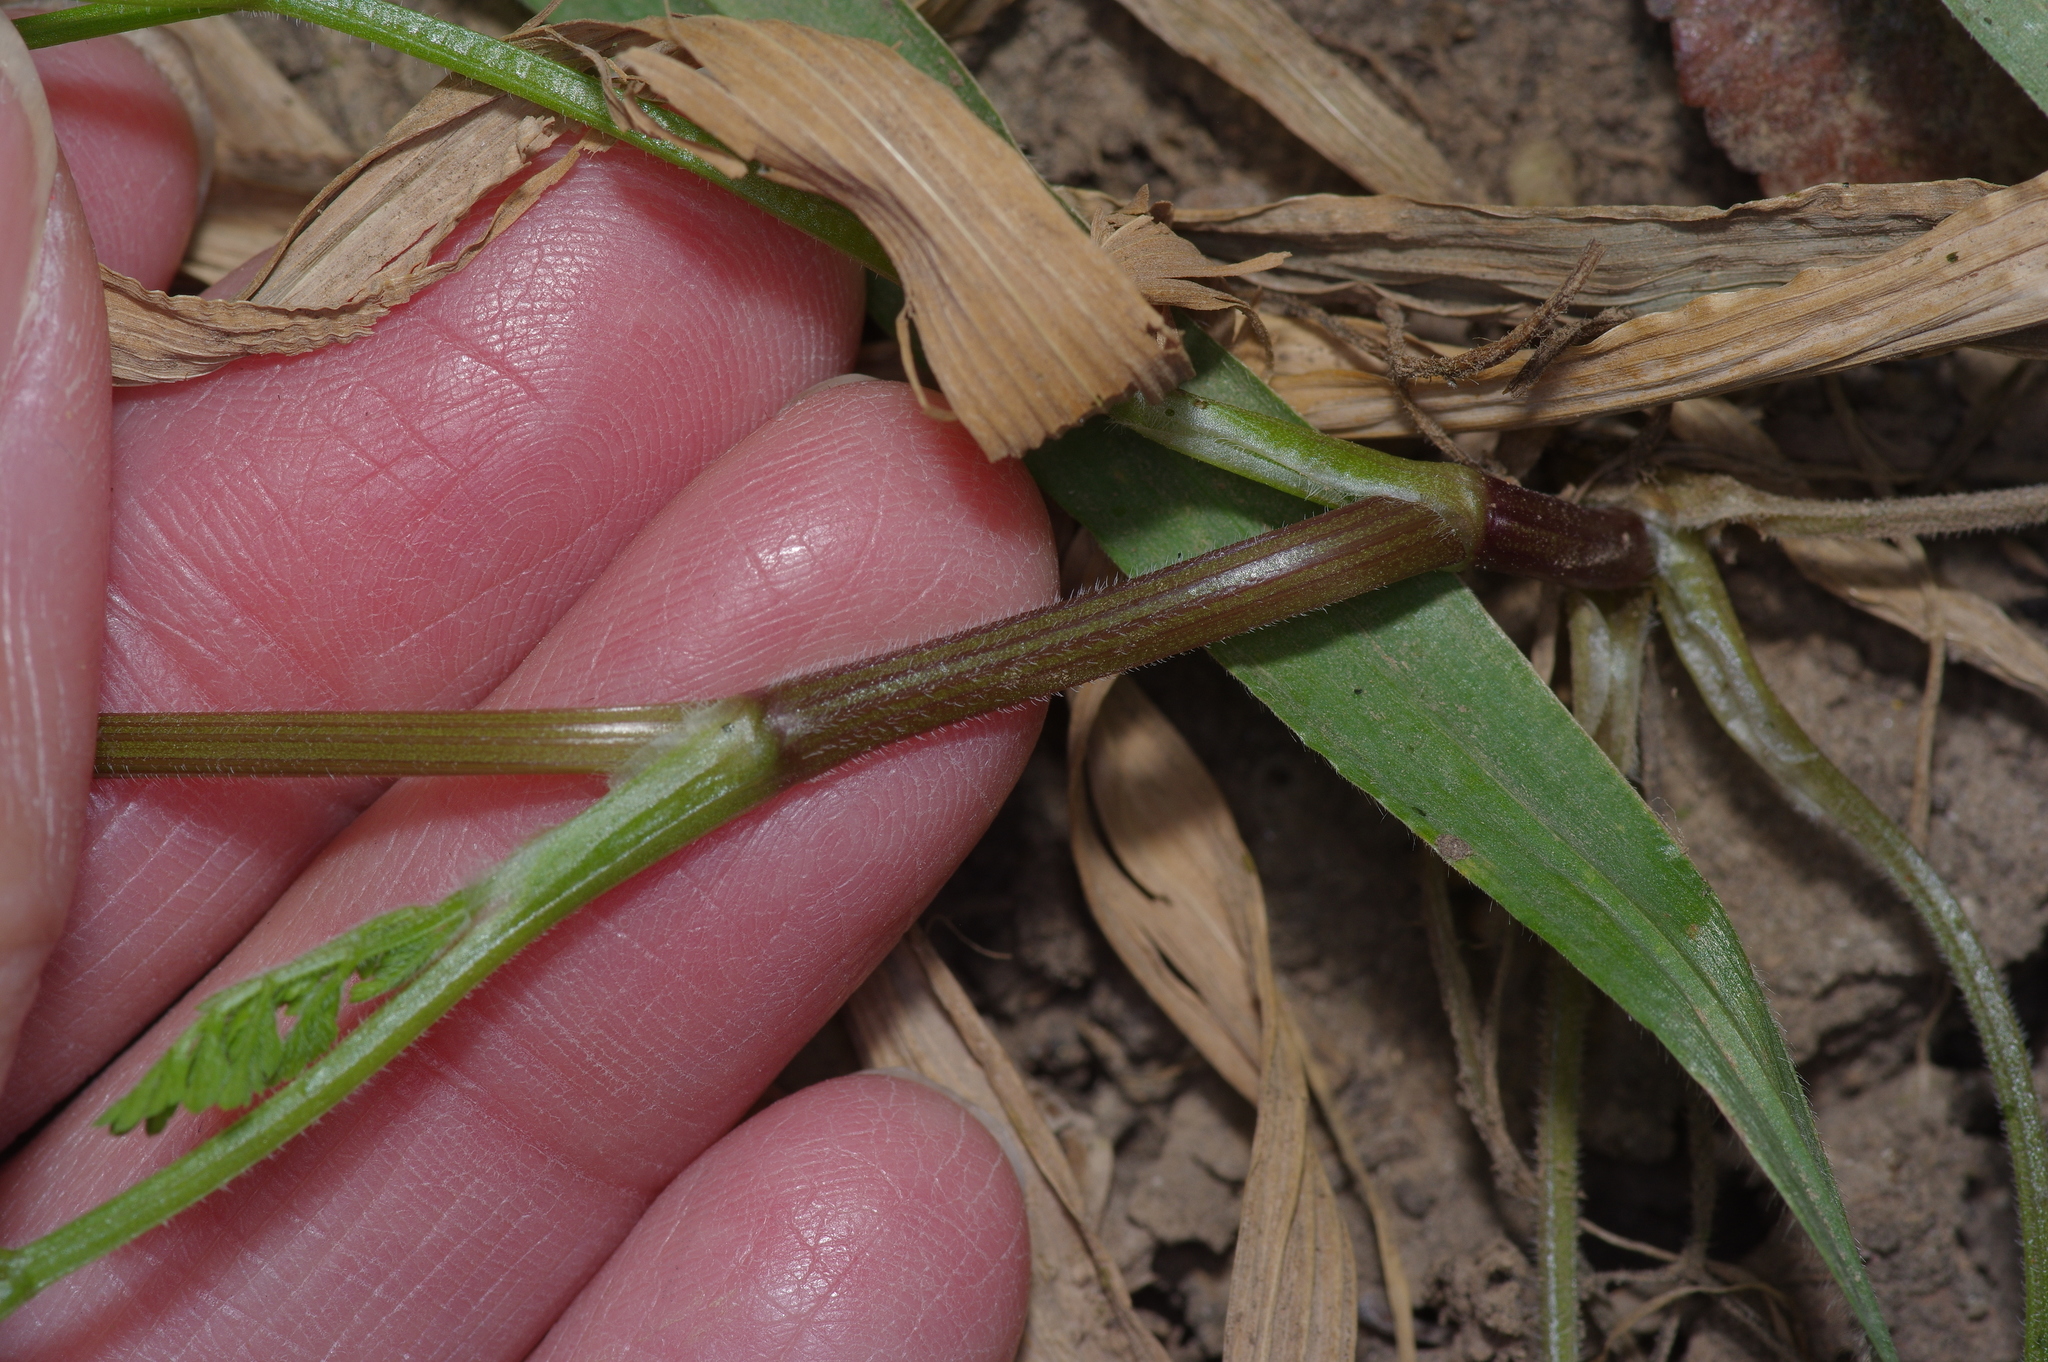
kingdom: Plantae
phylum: Tracheophyta
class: Magnoliopsida
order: Apiales
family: Apiaceae
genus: Chaerophyllum
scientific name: Chaerophyllum tainturieri
